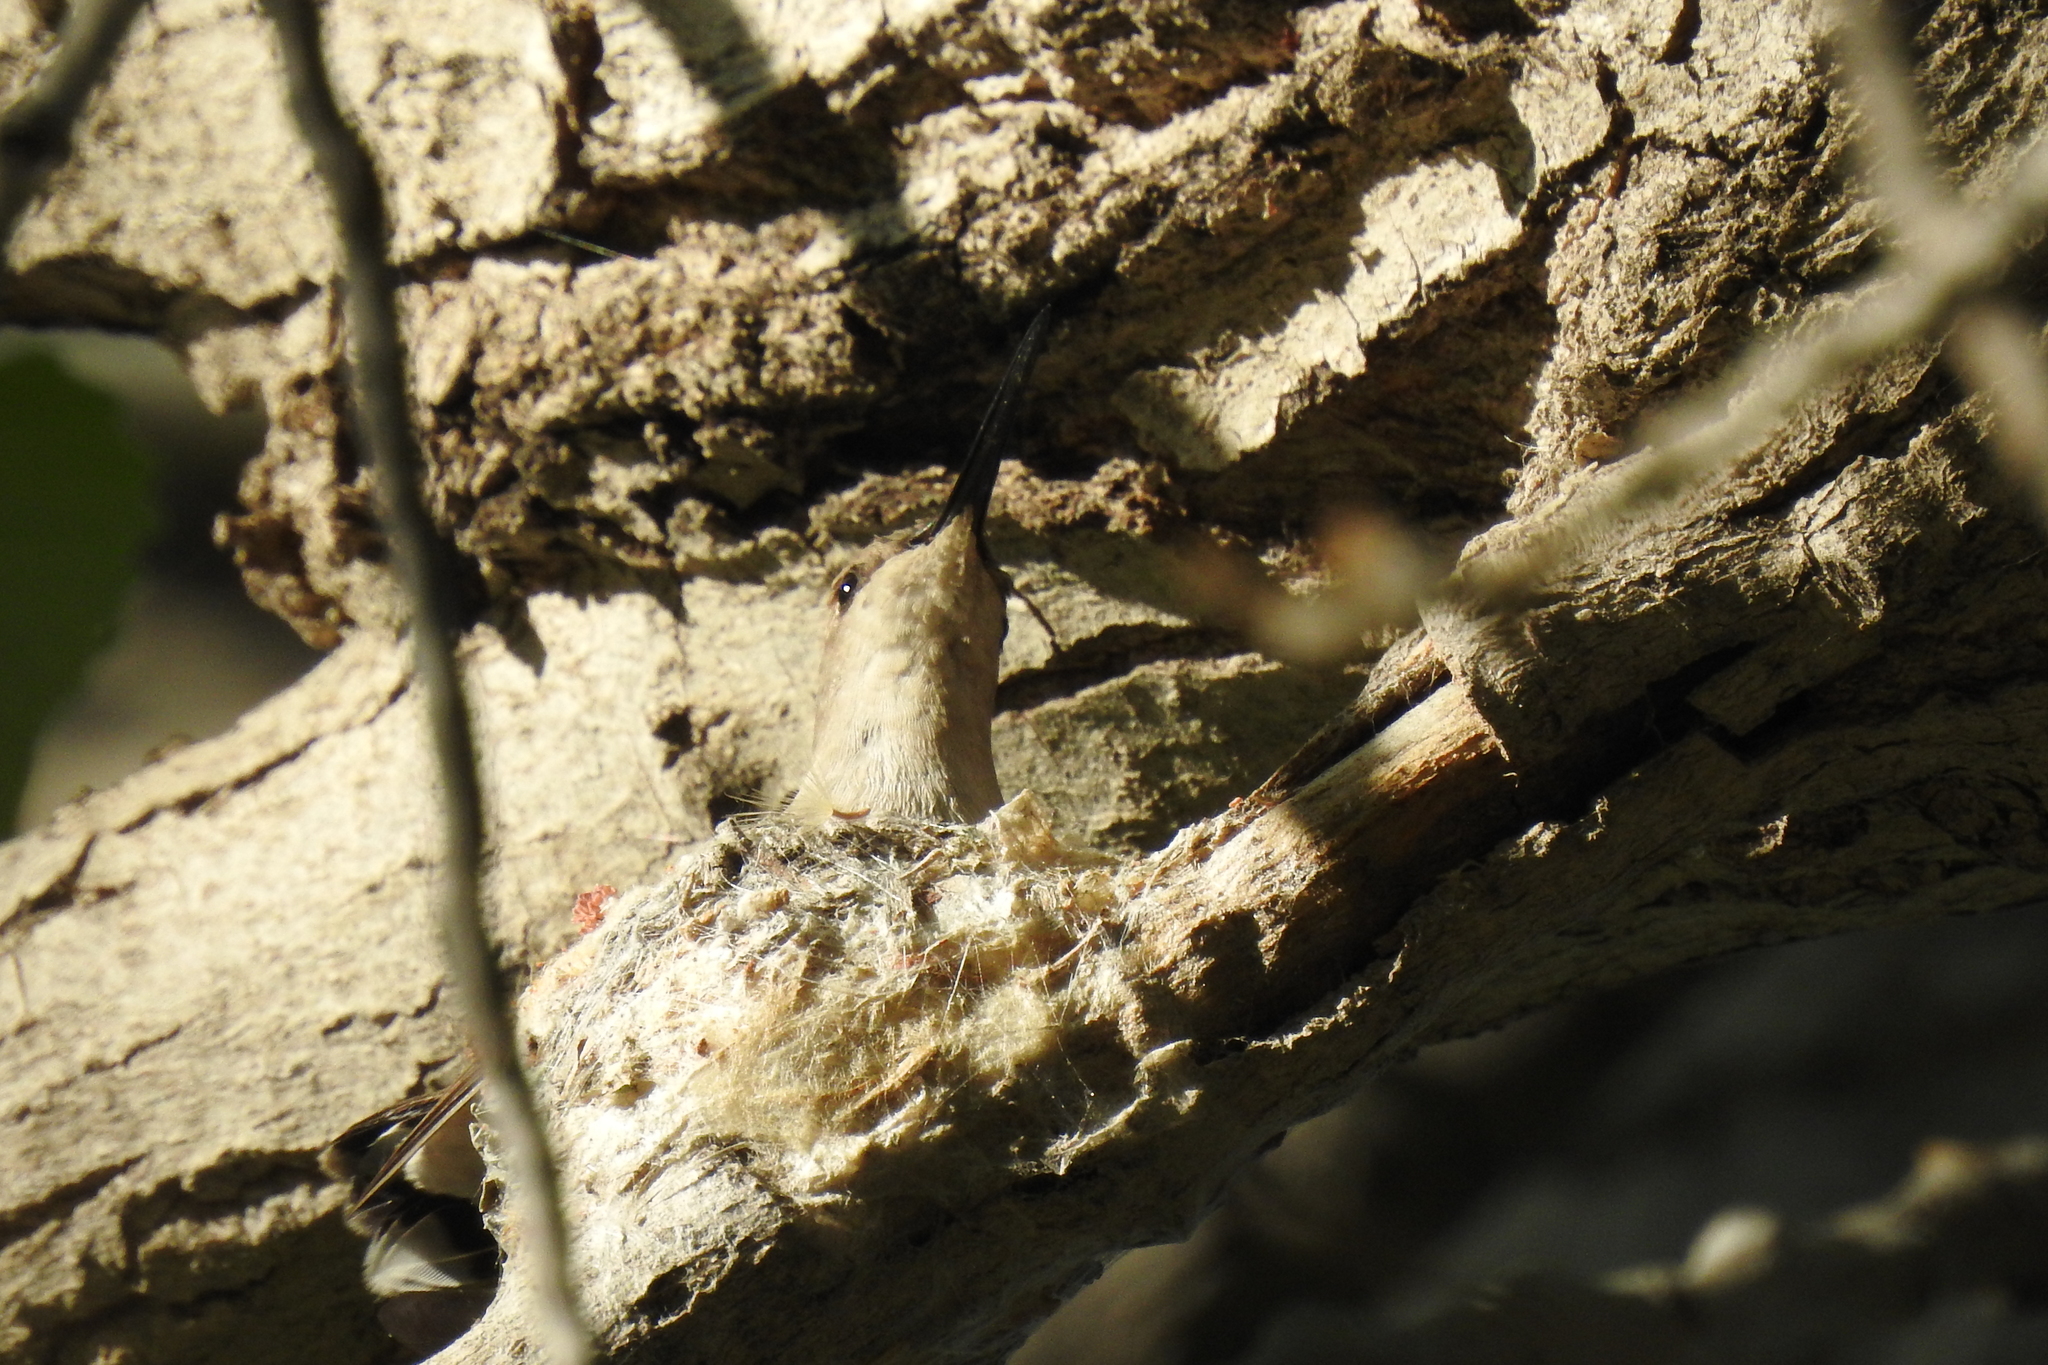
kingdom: Animalia
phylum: Chordata
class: Aves
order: Apodiformes
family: Trochilidae
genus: Archilochus
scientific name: Archilochus alexandri
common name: Black-chinned hummingbird
